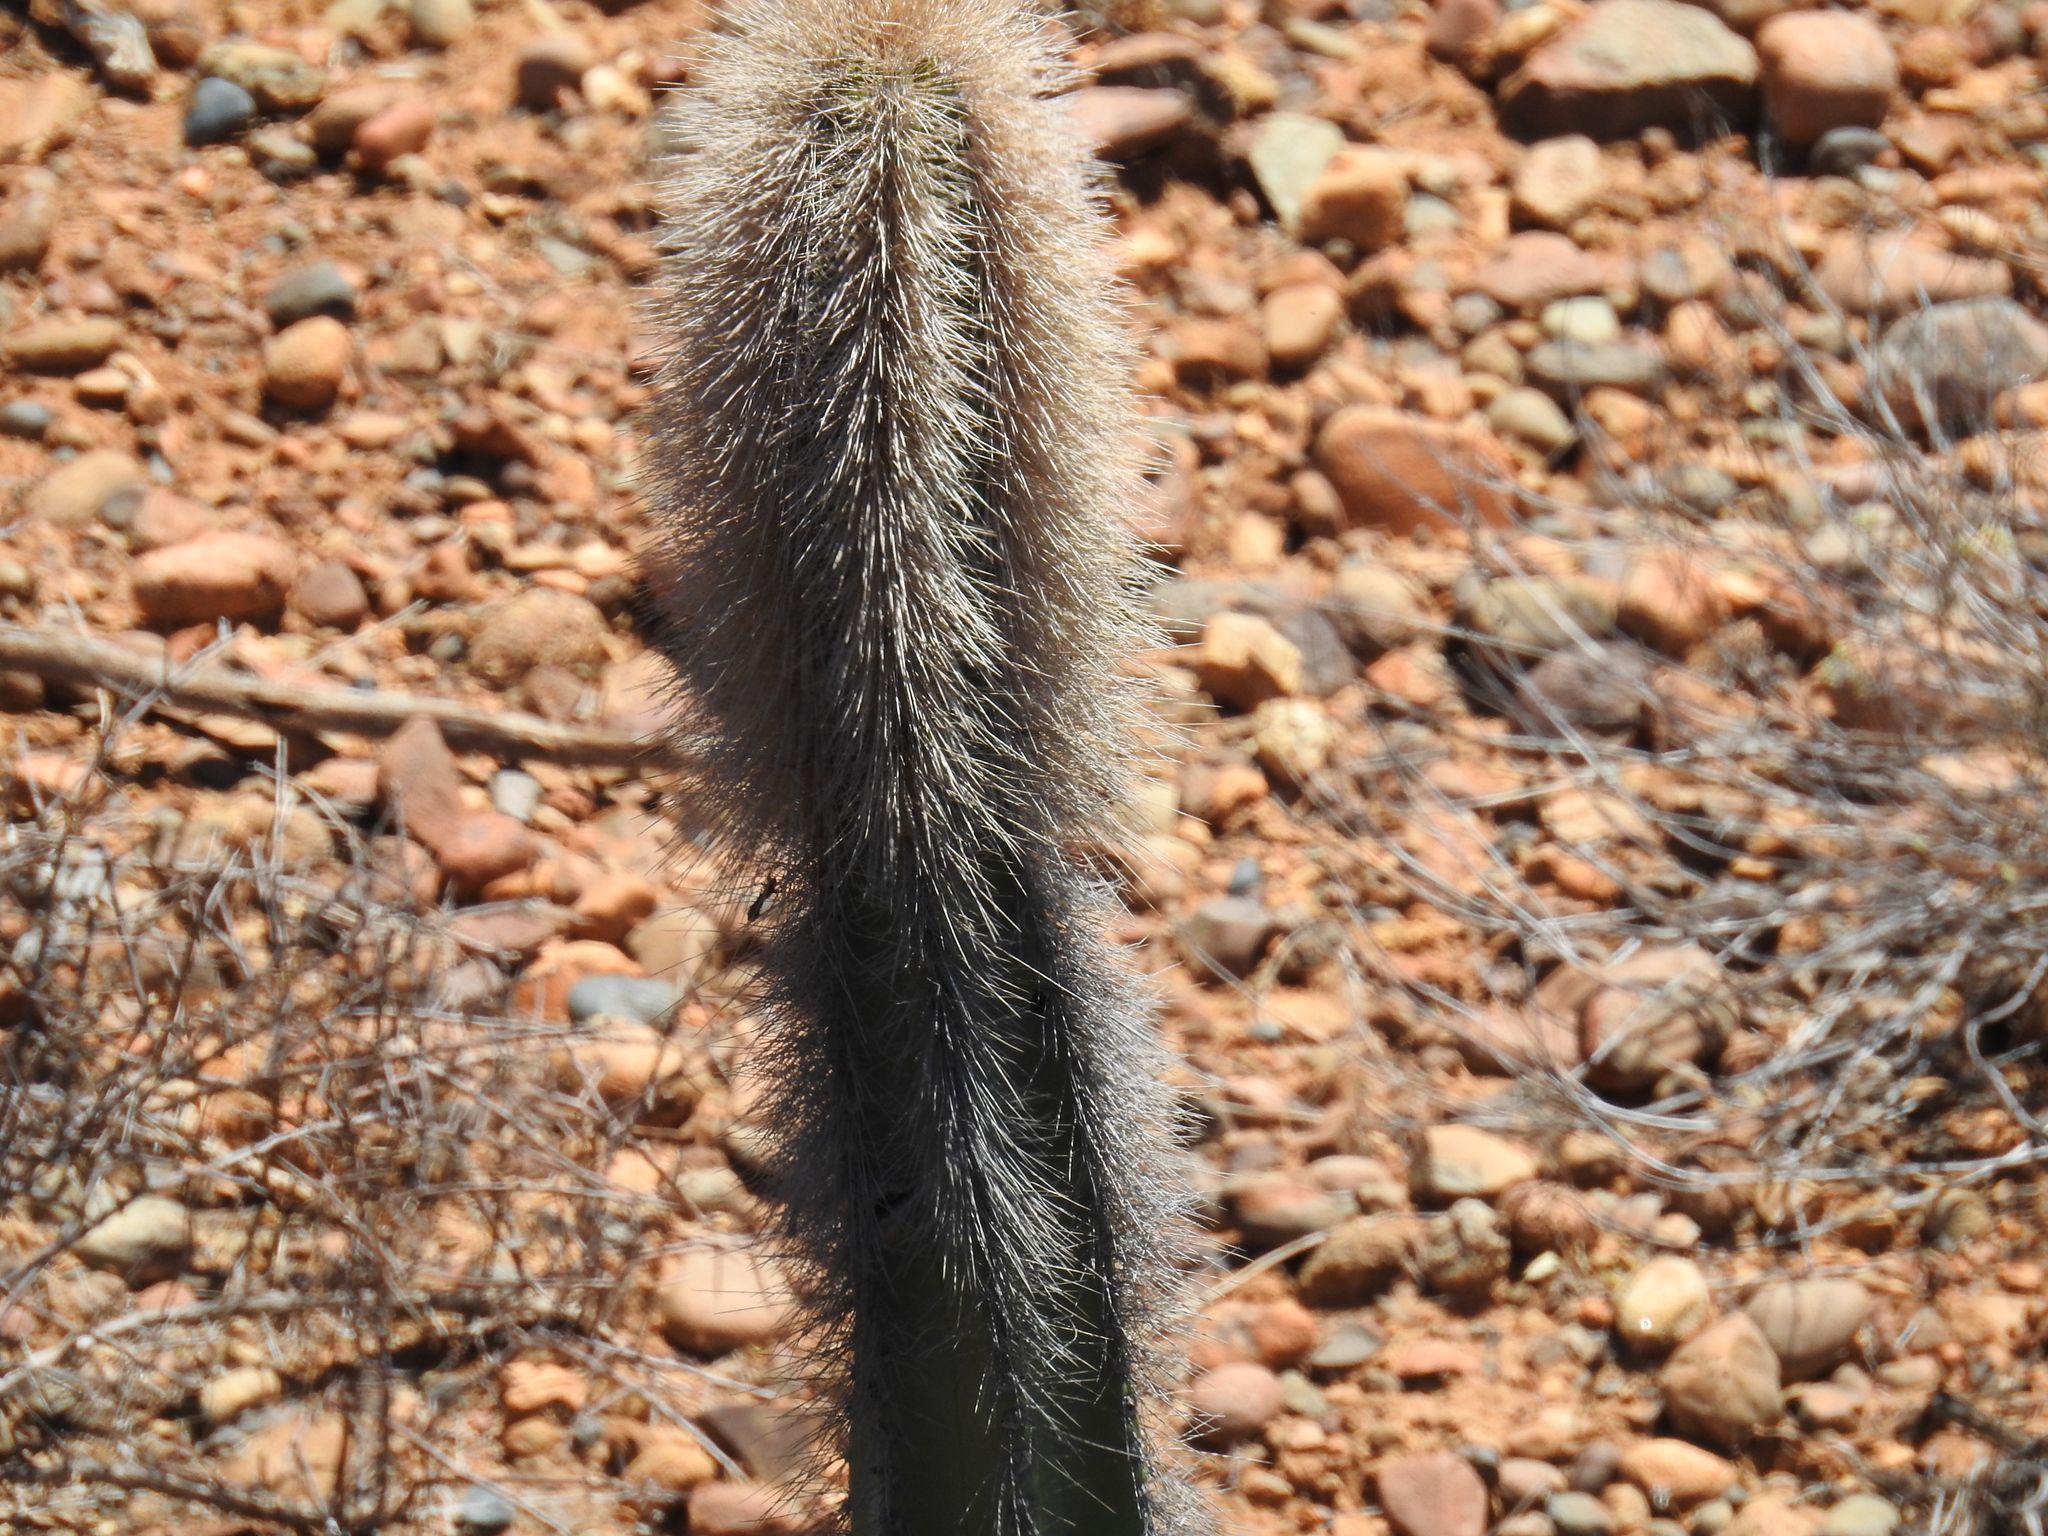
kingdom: Plantae
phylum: Tracheophyta
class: Magnoliopsida
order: Caryophyllales
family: Cactaceae
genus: Pachycereus
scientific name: Pachycereus schottii
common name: Senita cactus
